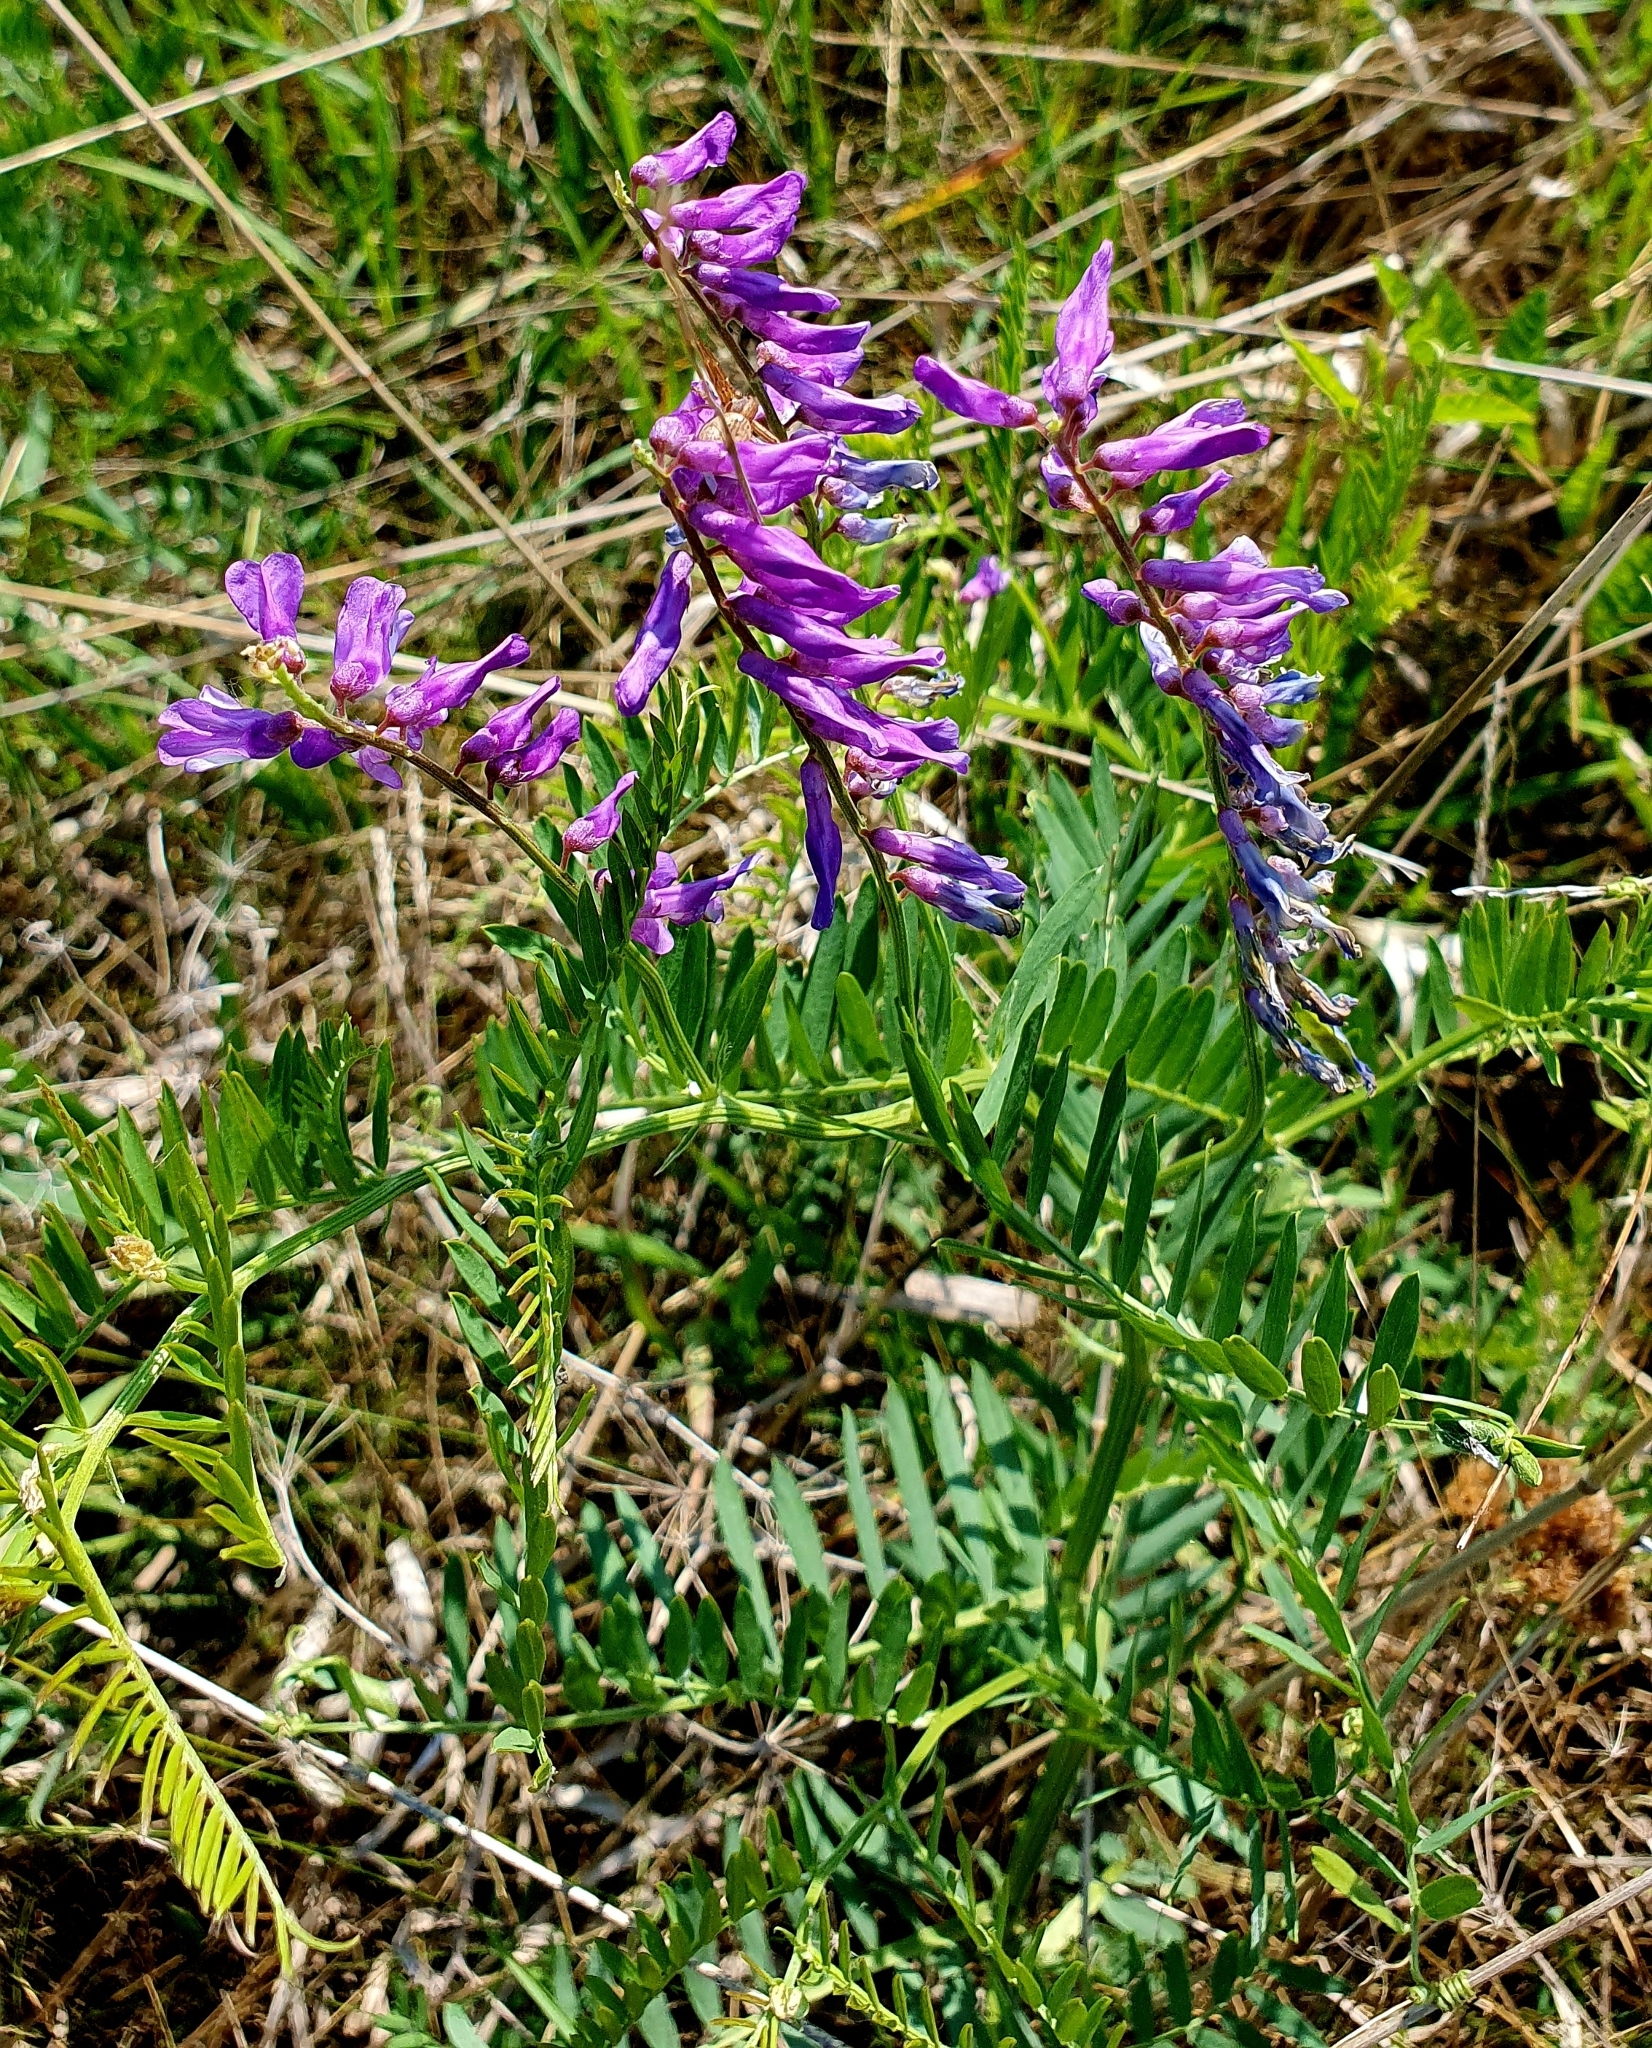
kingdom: Plantae
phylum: Tracheophyta
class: Magnoliopsida
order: Fabales
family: Fabaceae
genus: Vicia
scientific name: Vicia tenuifolia
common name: Fine-leaved vetch
